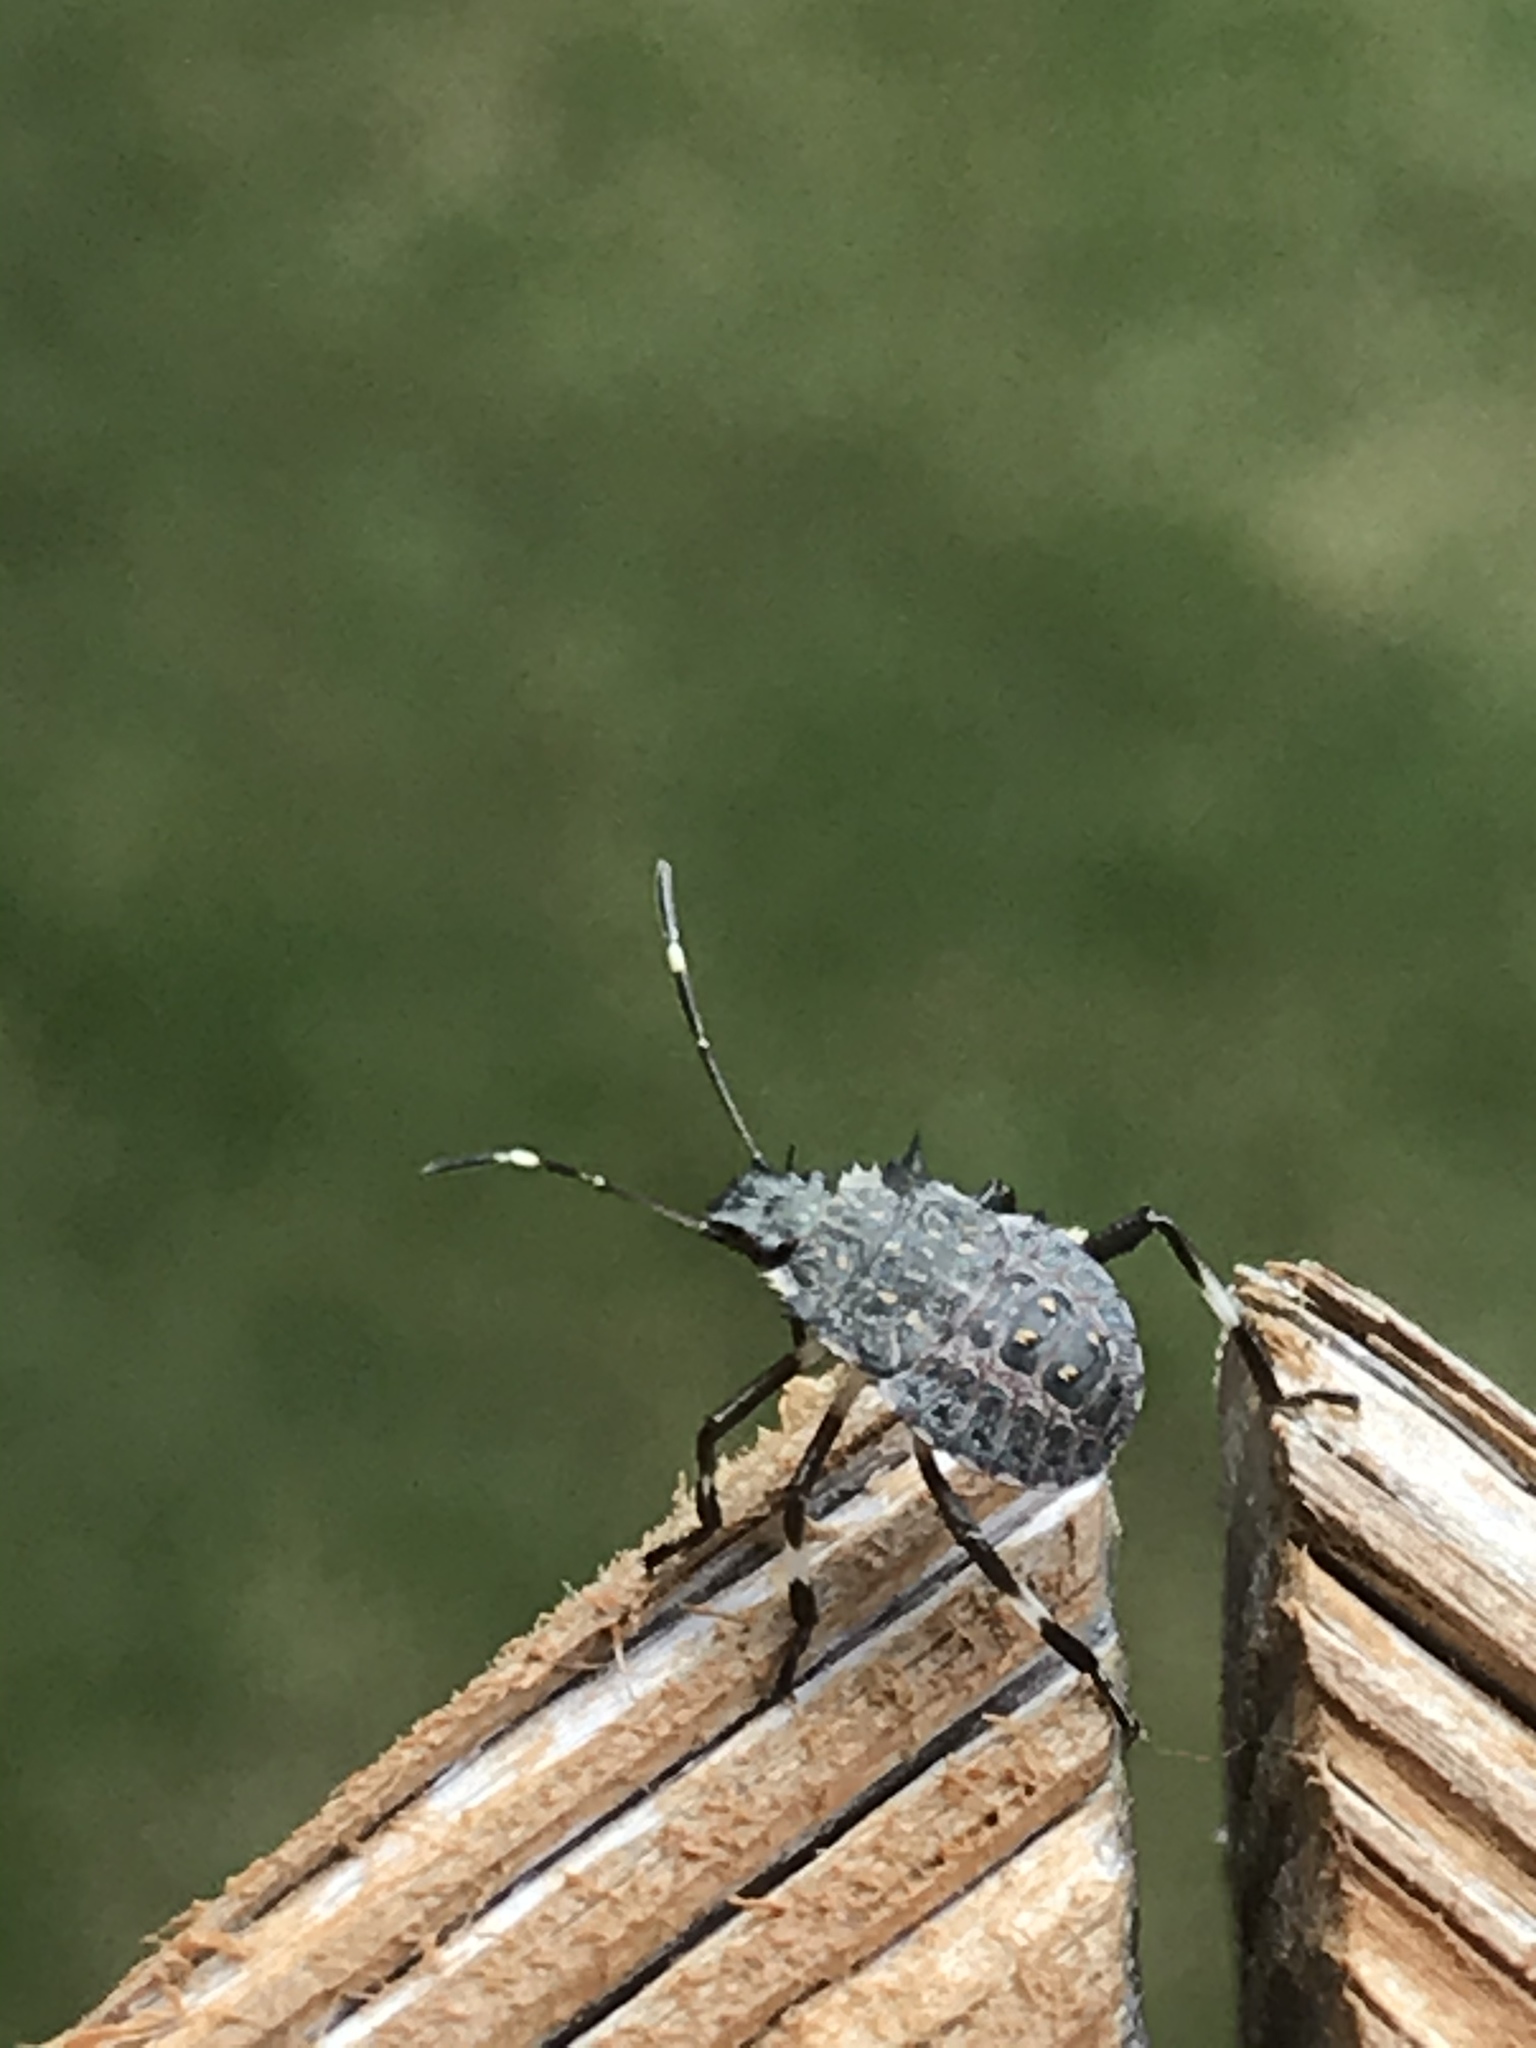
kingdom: Animalia
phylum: Arthropoda
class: Insecta
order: Hemiptera
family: Pentatomidae
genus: Halyomorpha
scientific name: Halyomorpha halys
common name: Brown marmorated stink bug
